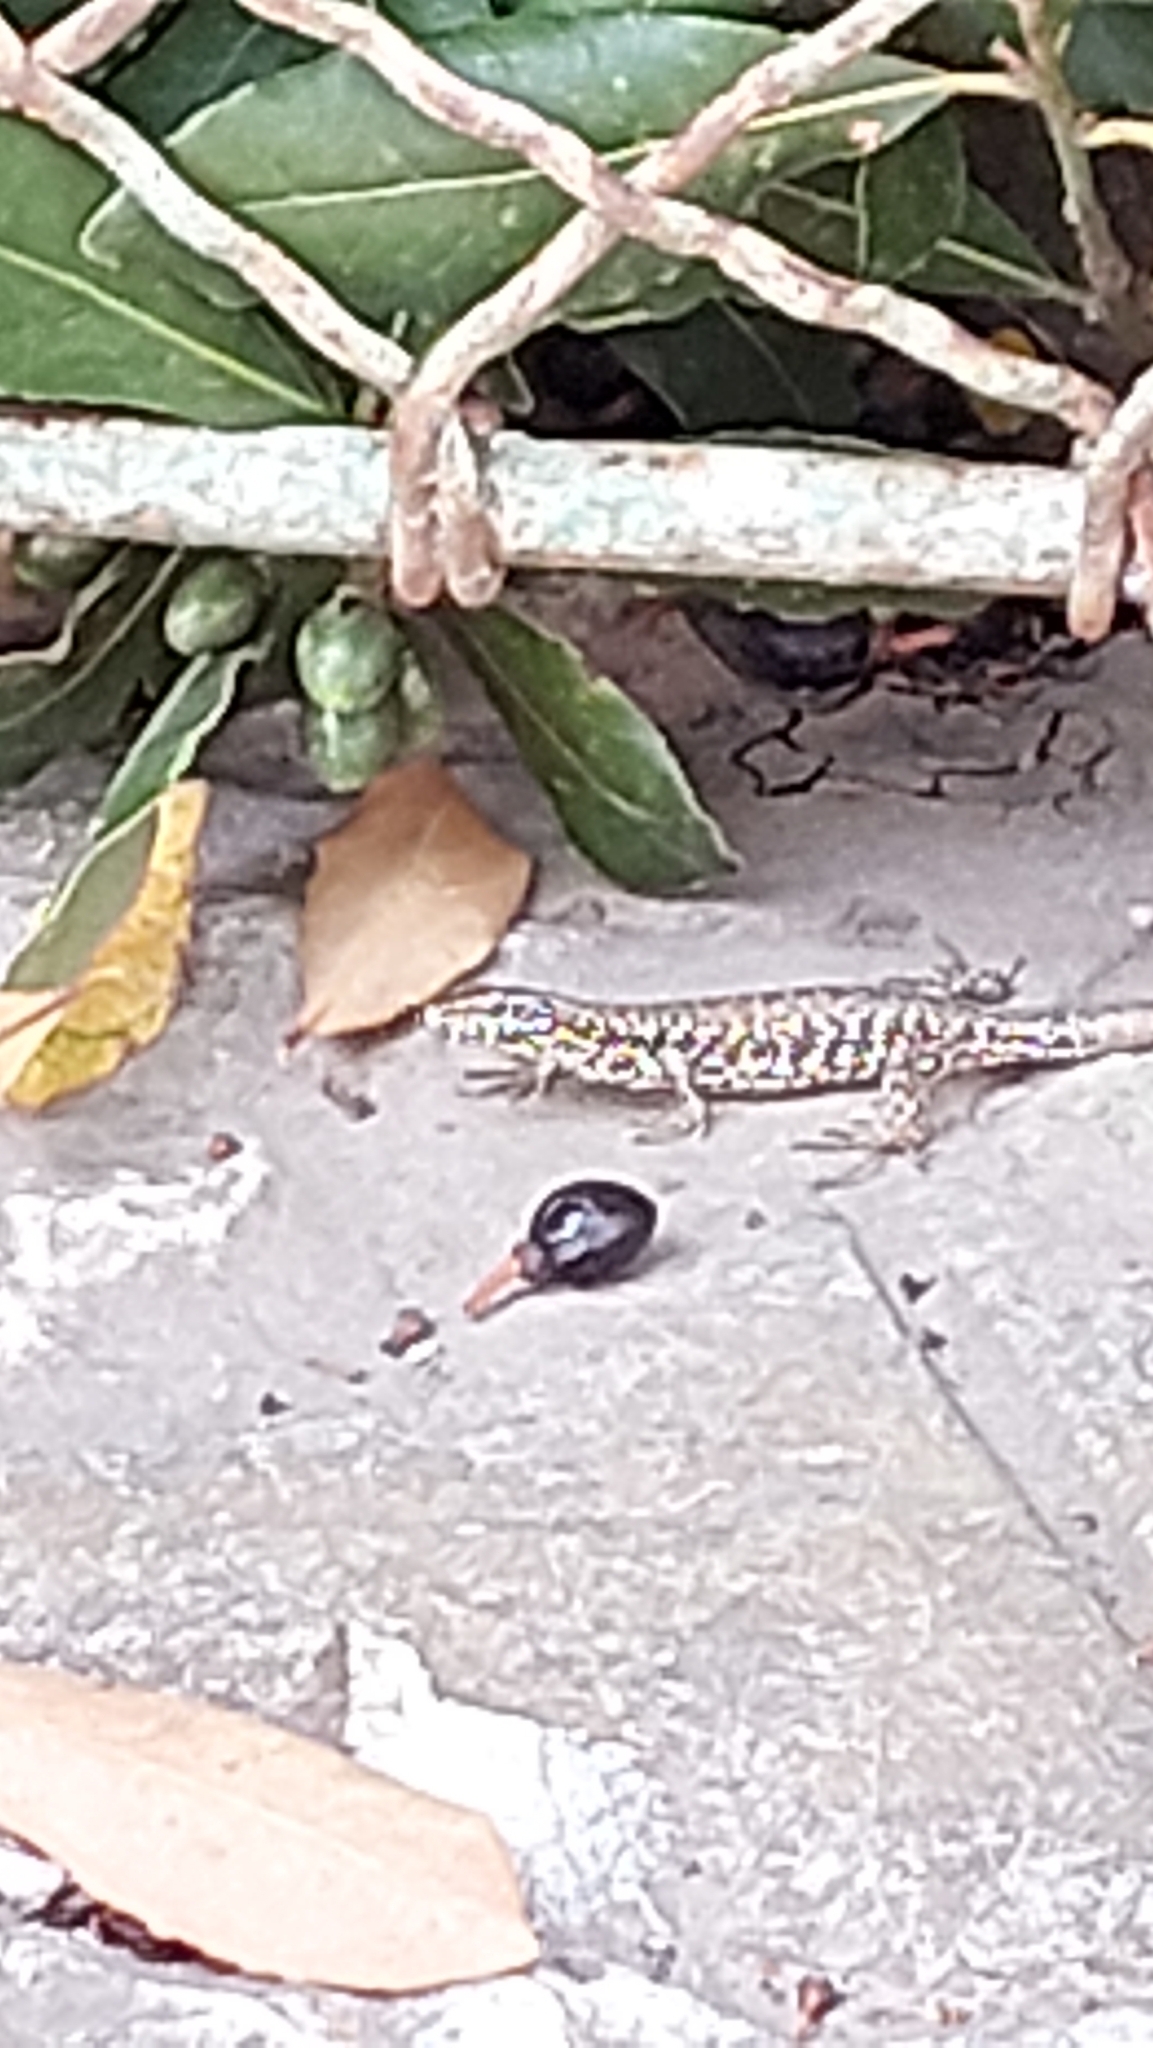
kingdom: Animalia
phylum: Chordata
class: Squamata
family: Lacertidae
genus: Podarcis
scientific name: Podarcis muralis
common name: Common wall lizard
